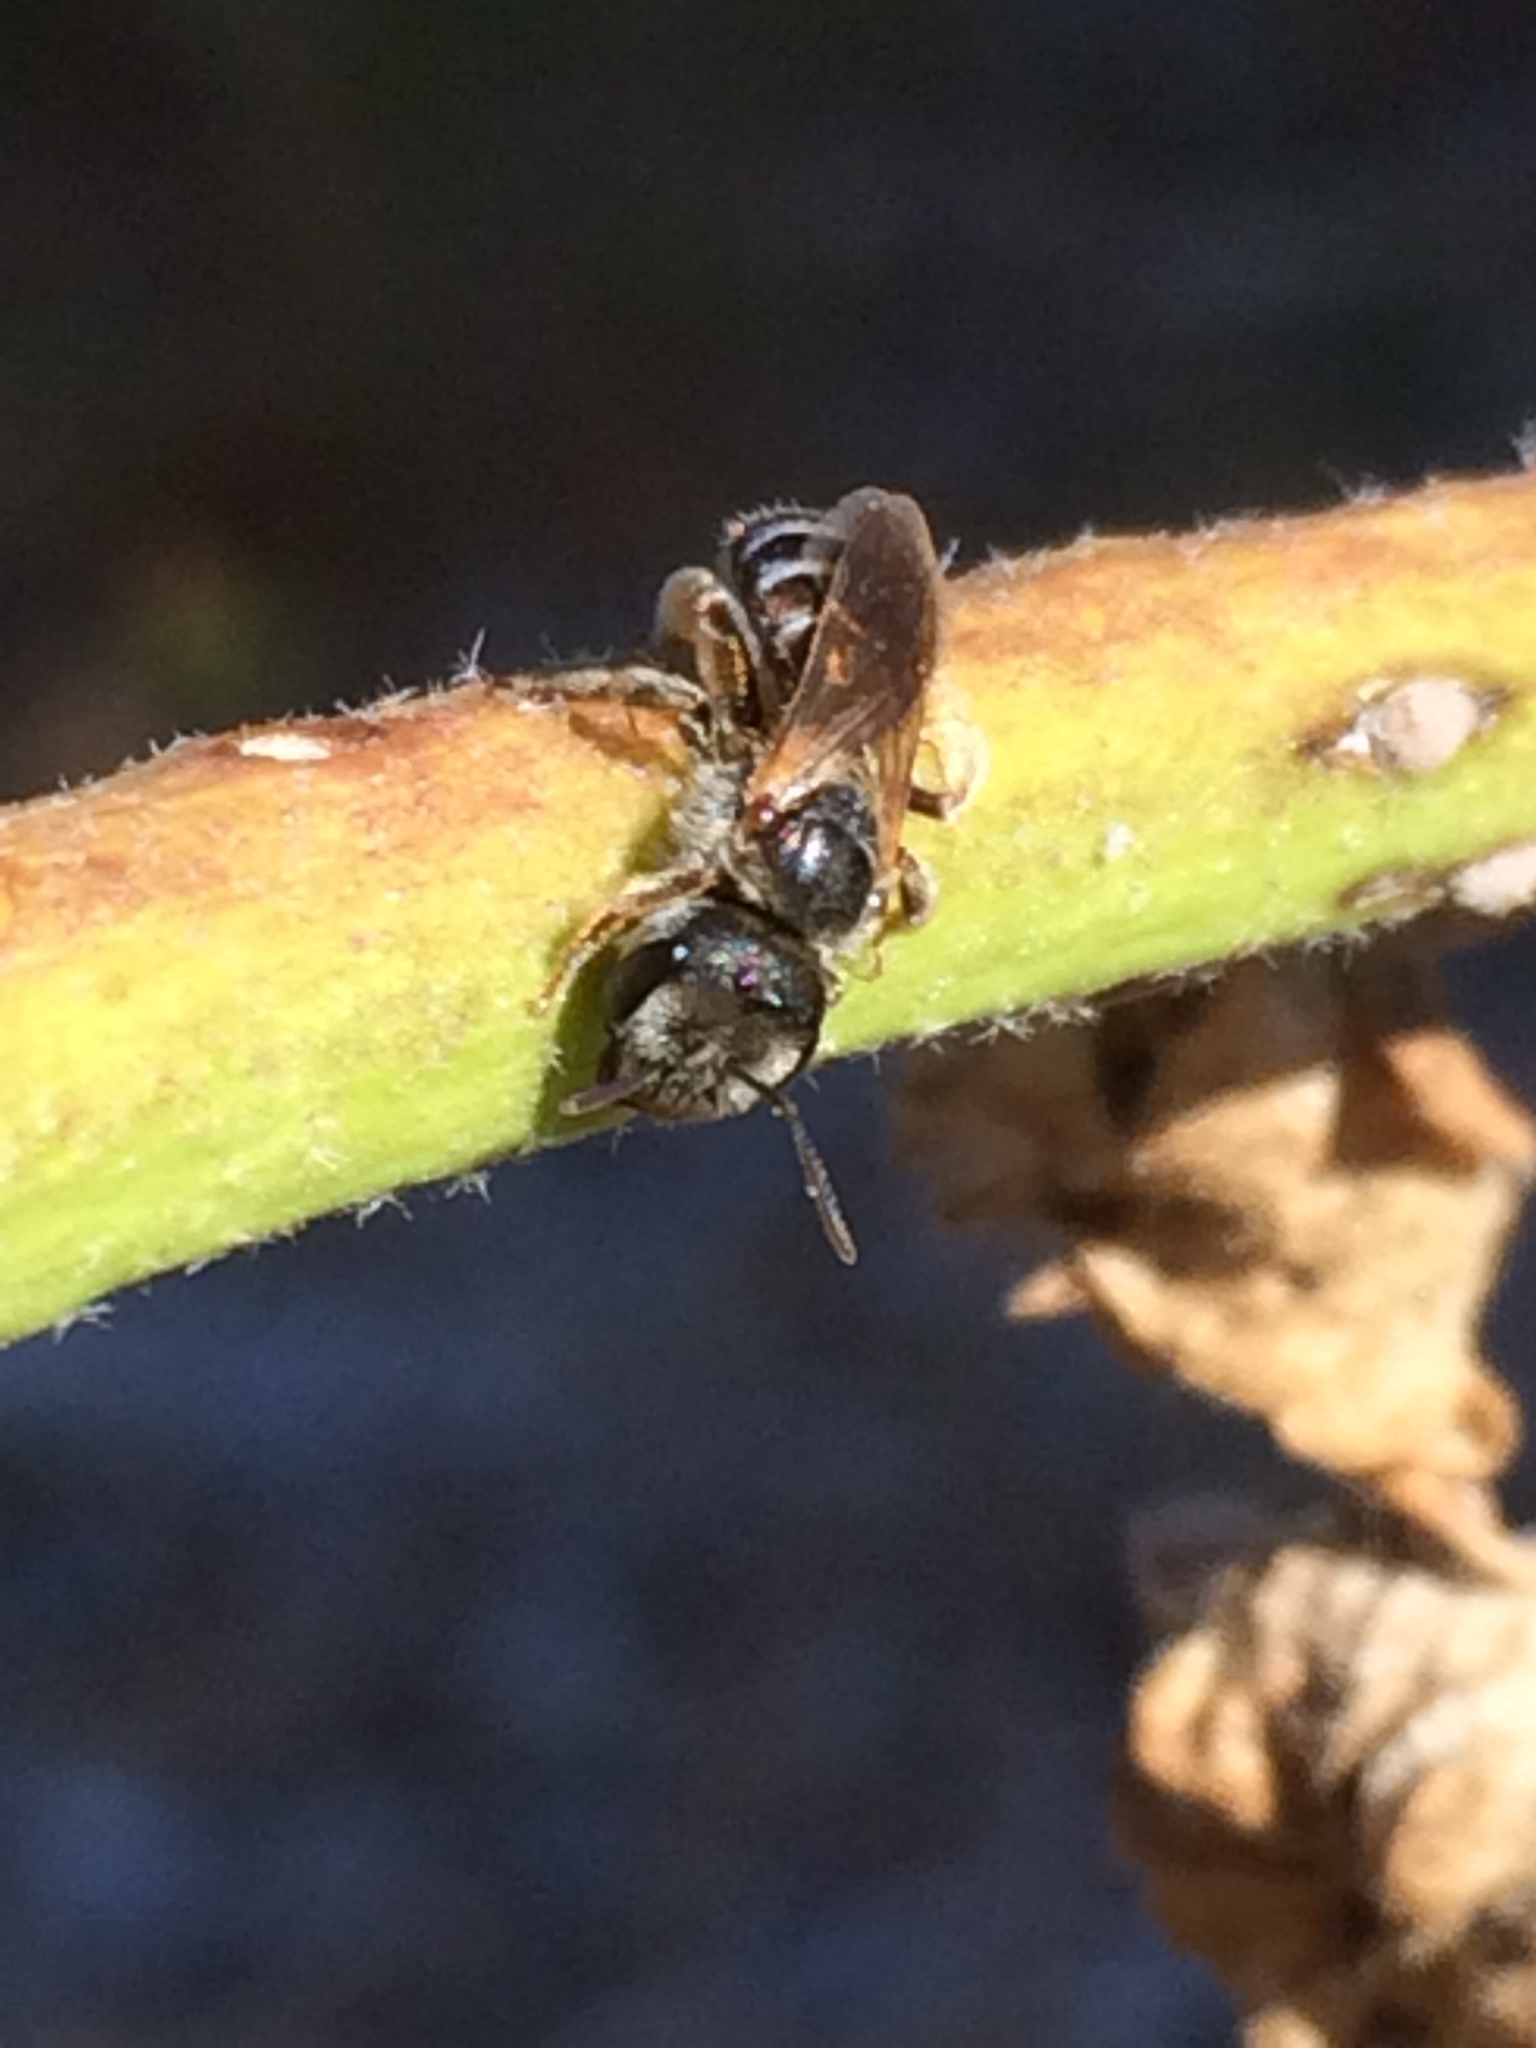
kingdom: Animalia
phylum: Arthropoda
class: Insecta
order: Hymenoptera
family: Halictidae
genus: Halictus
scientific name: Halictus ligatus
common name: Ligated furrow bee
